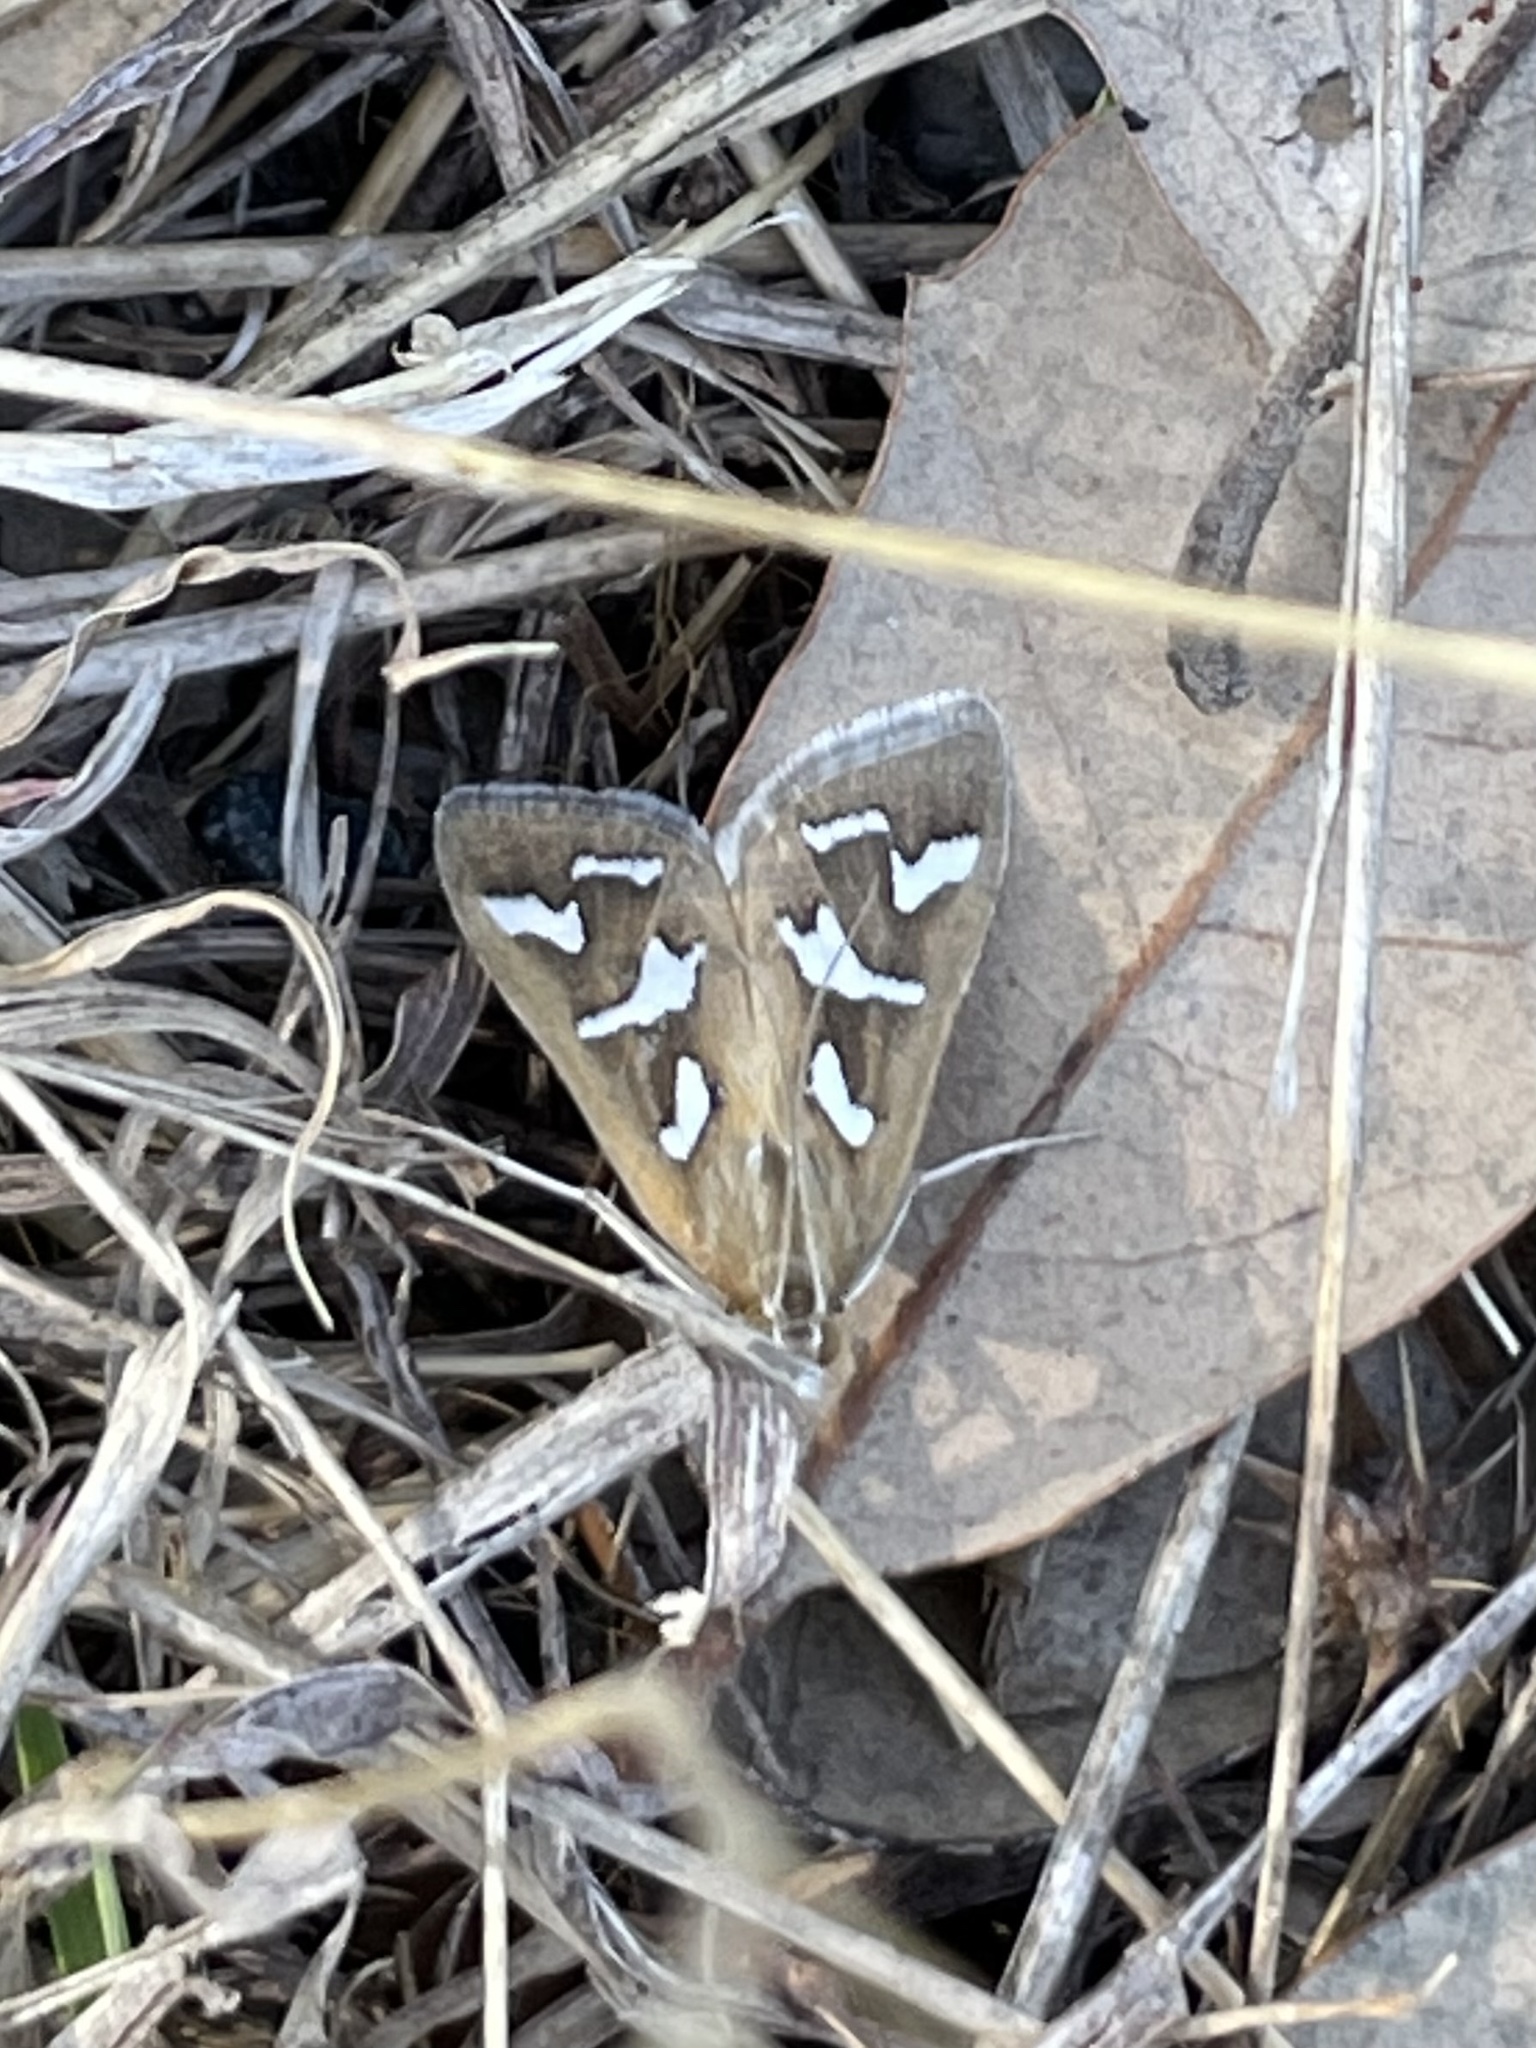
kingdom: Animalia
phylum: Arthropoda
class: Insecta
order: Lepidoptera
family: Crambidae
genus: Diastictis
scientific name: Diastictis fracturalis
